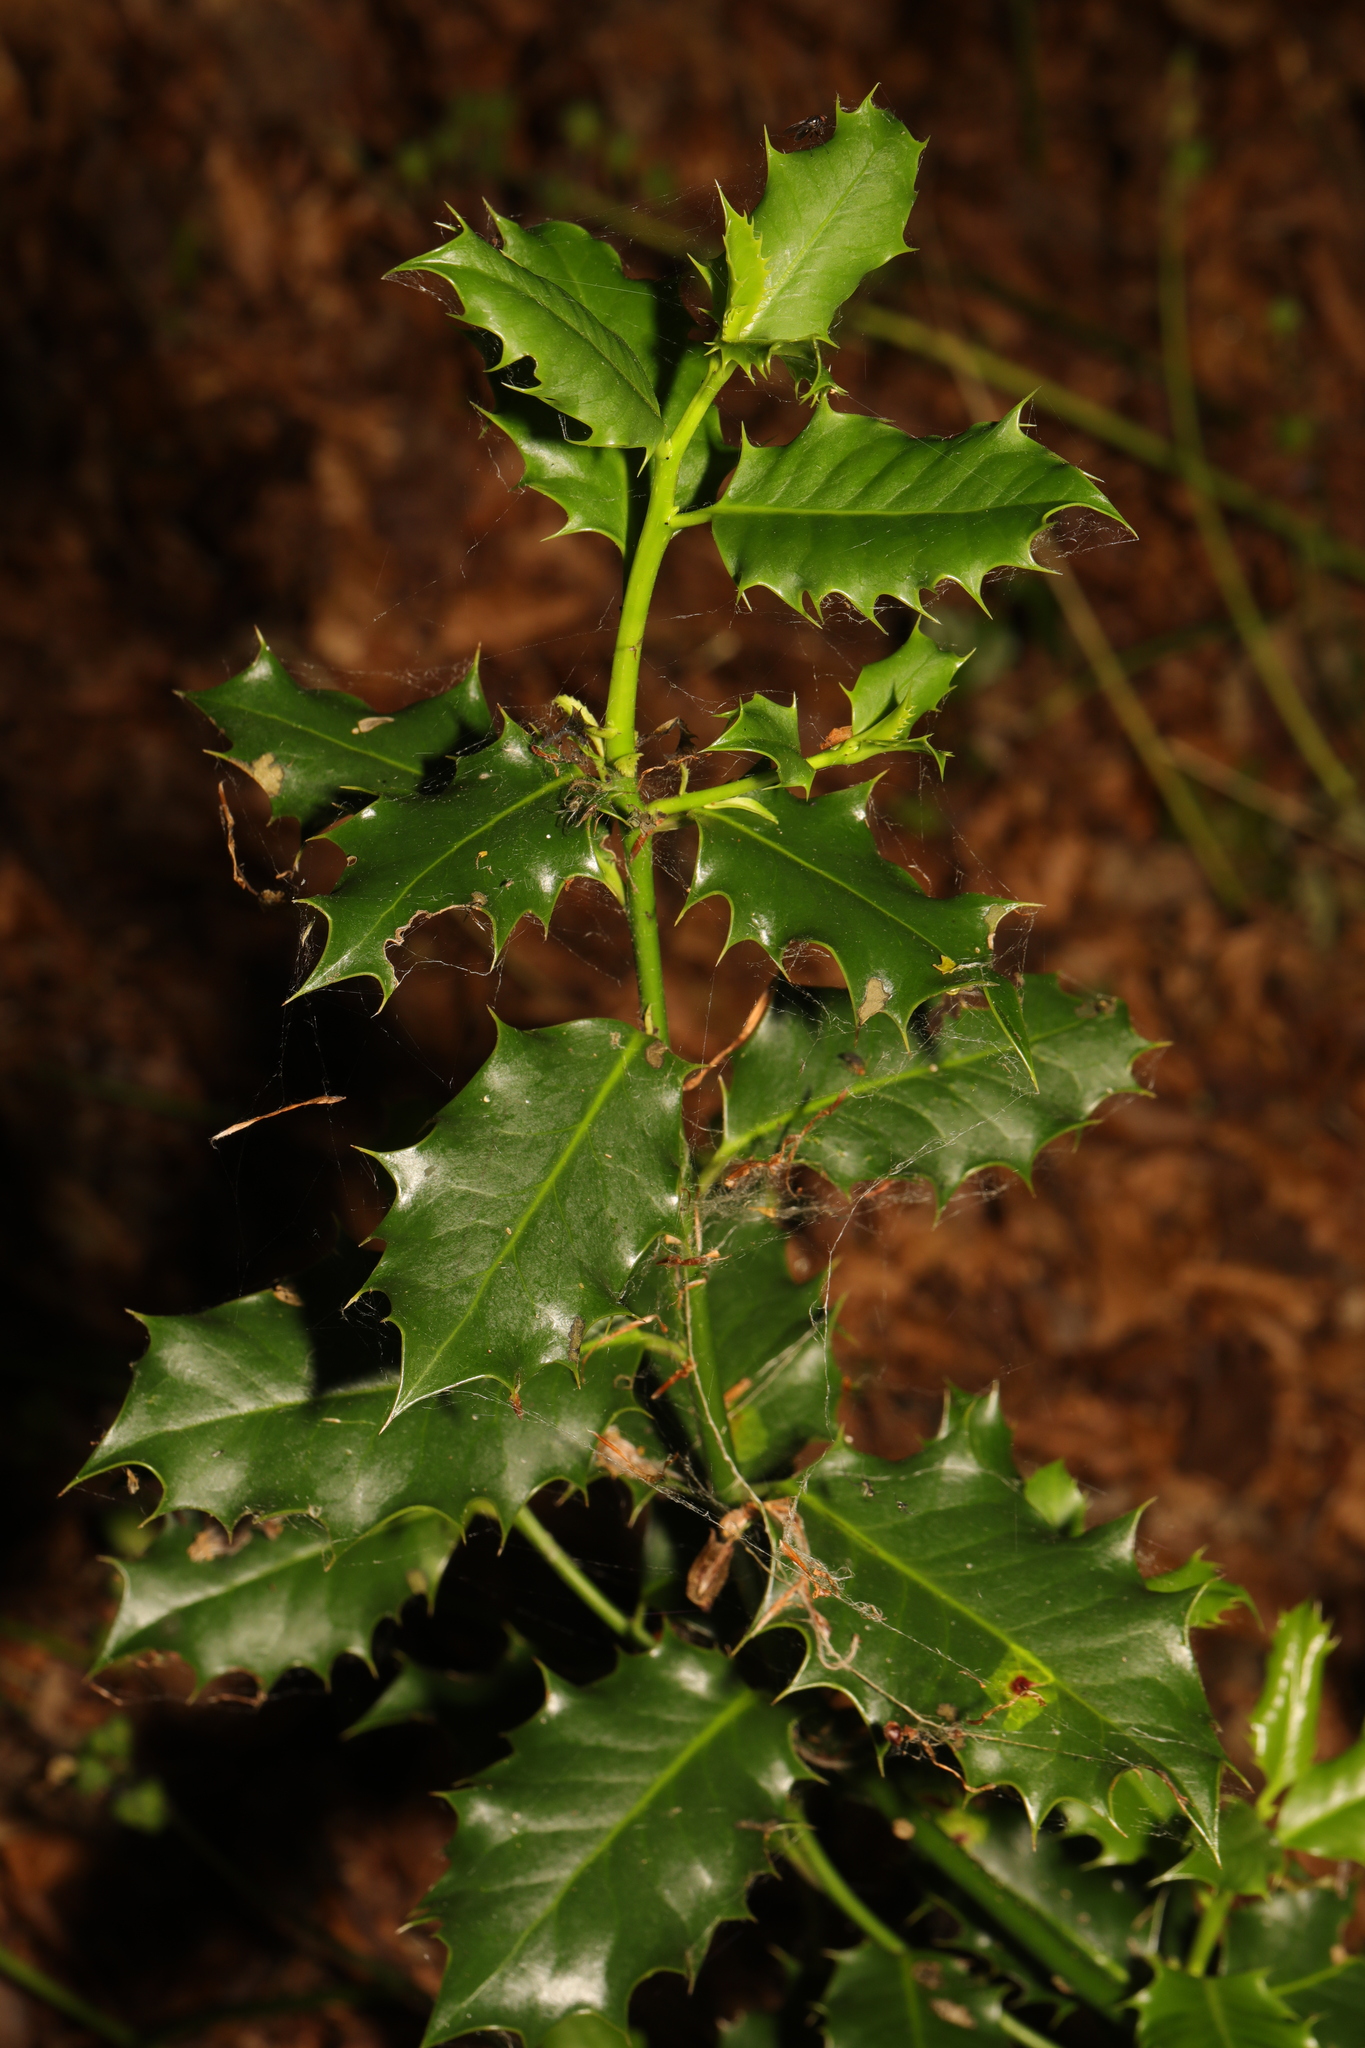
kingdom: Plantae
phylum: Tracheophyta
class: Magnoliopsida
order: Aquifoliales
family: Aquifoliaceae
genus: Ilex
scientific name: Ilex aquifolium
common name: English holly
